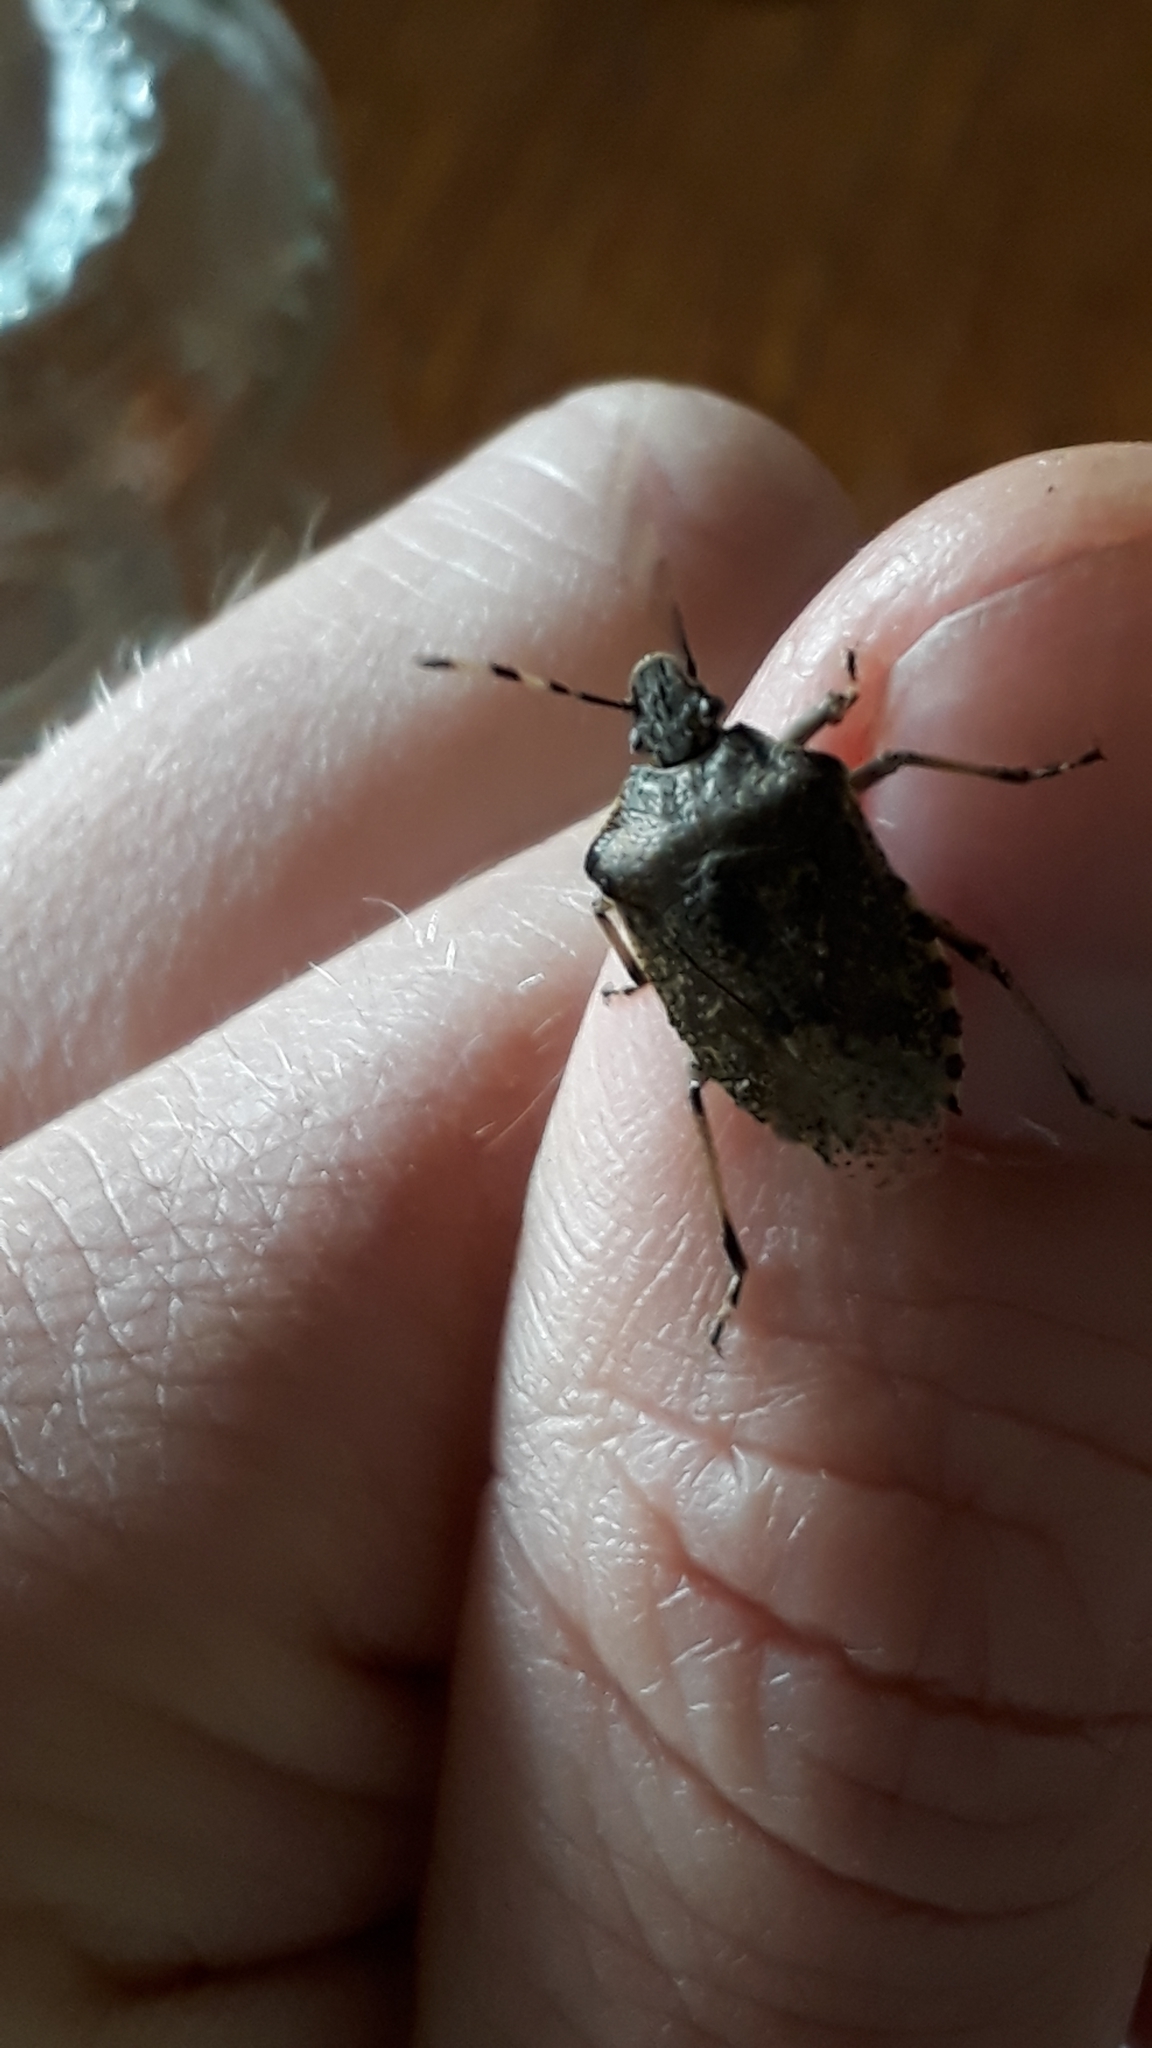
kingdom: Animalia
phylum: Arthropoda
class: Insecta
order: Hemiptera
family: Pentatomidae
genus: Rhaphigaster
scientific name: Rhaphigaster nebulosa
